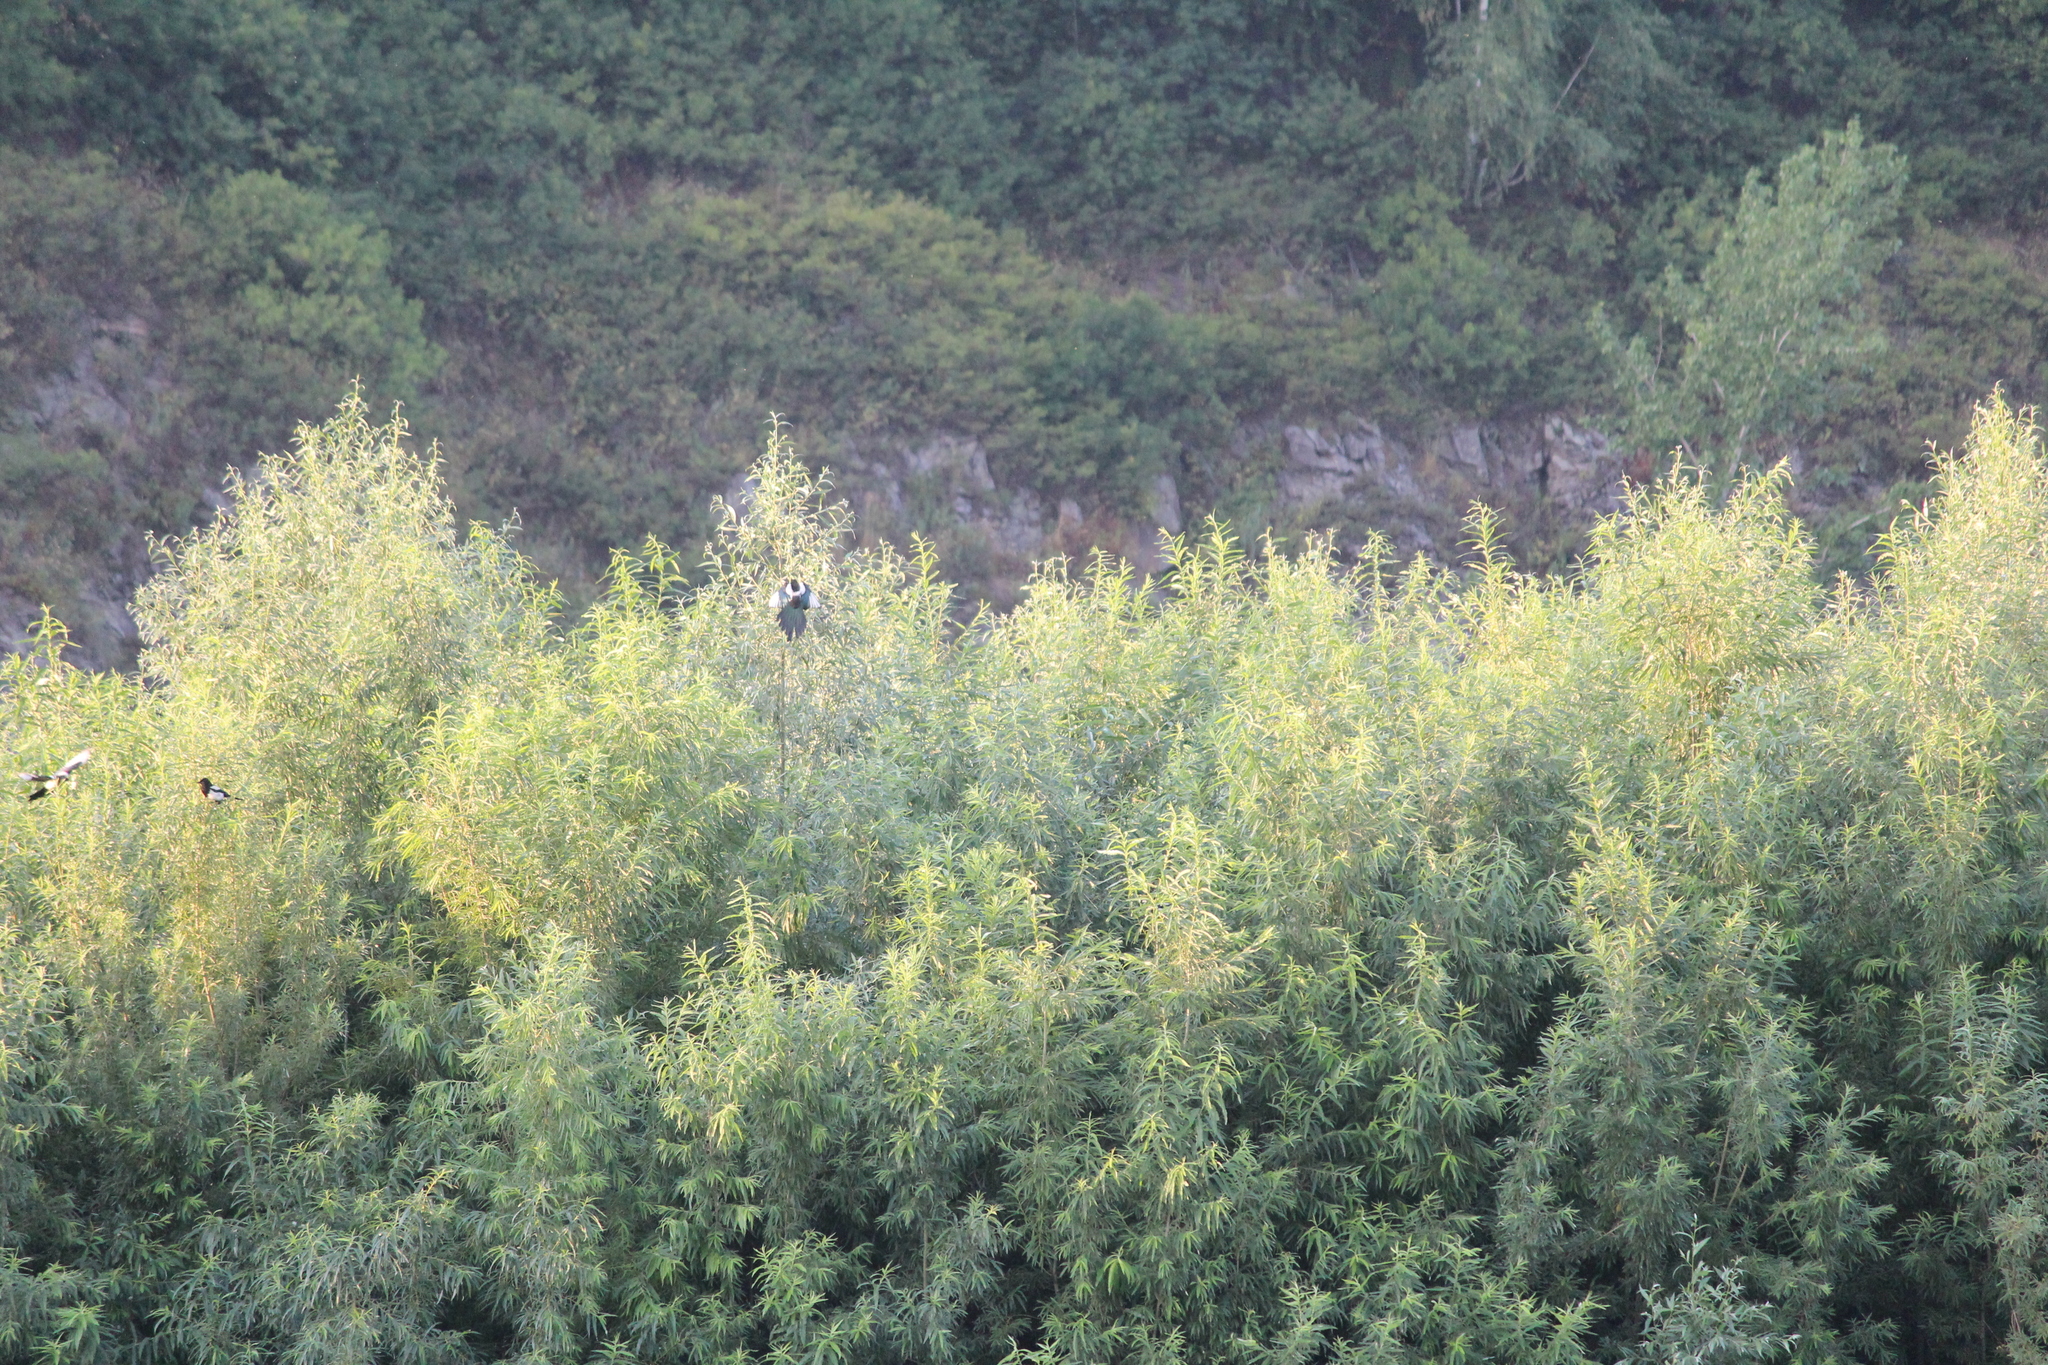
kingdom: Animalia
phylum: Chordata
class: Aves
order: Passeriformes
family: Corvidae
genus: Pica
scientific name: Pica pica
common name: Eurasian magpie
